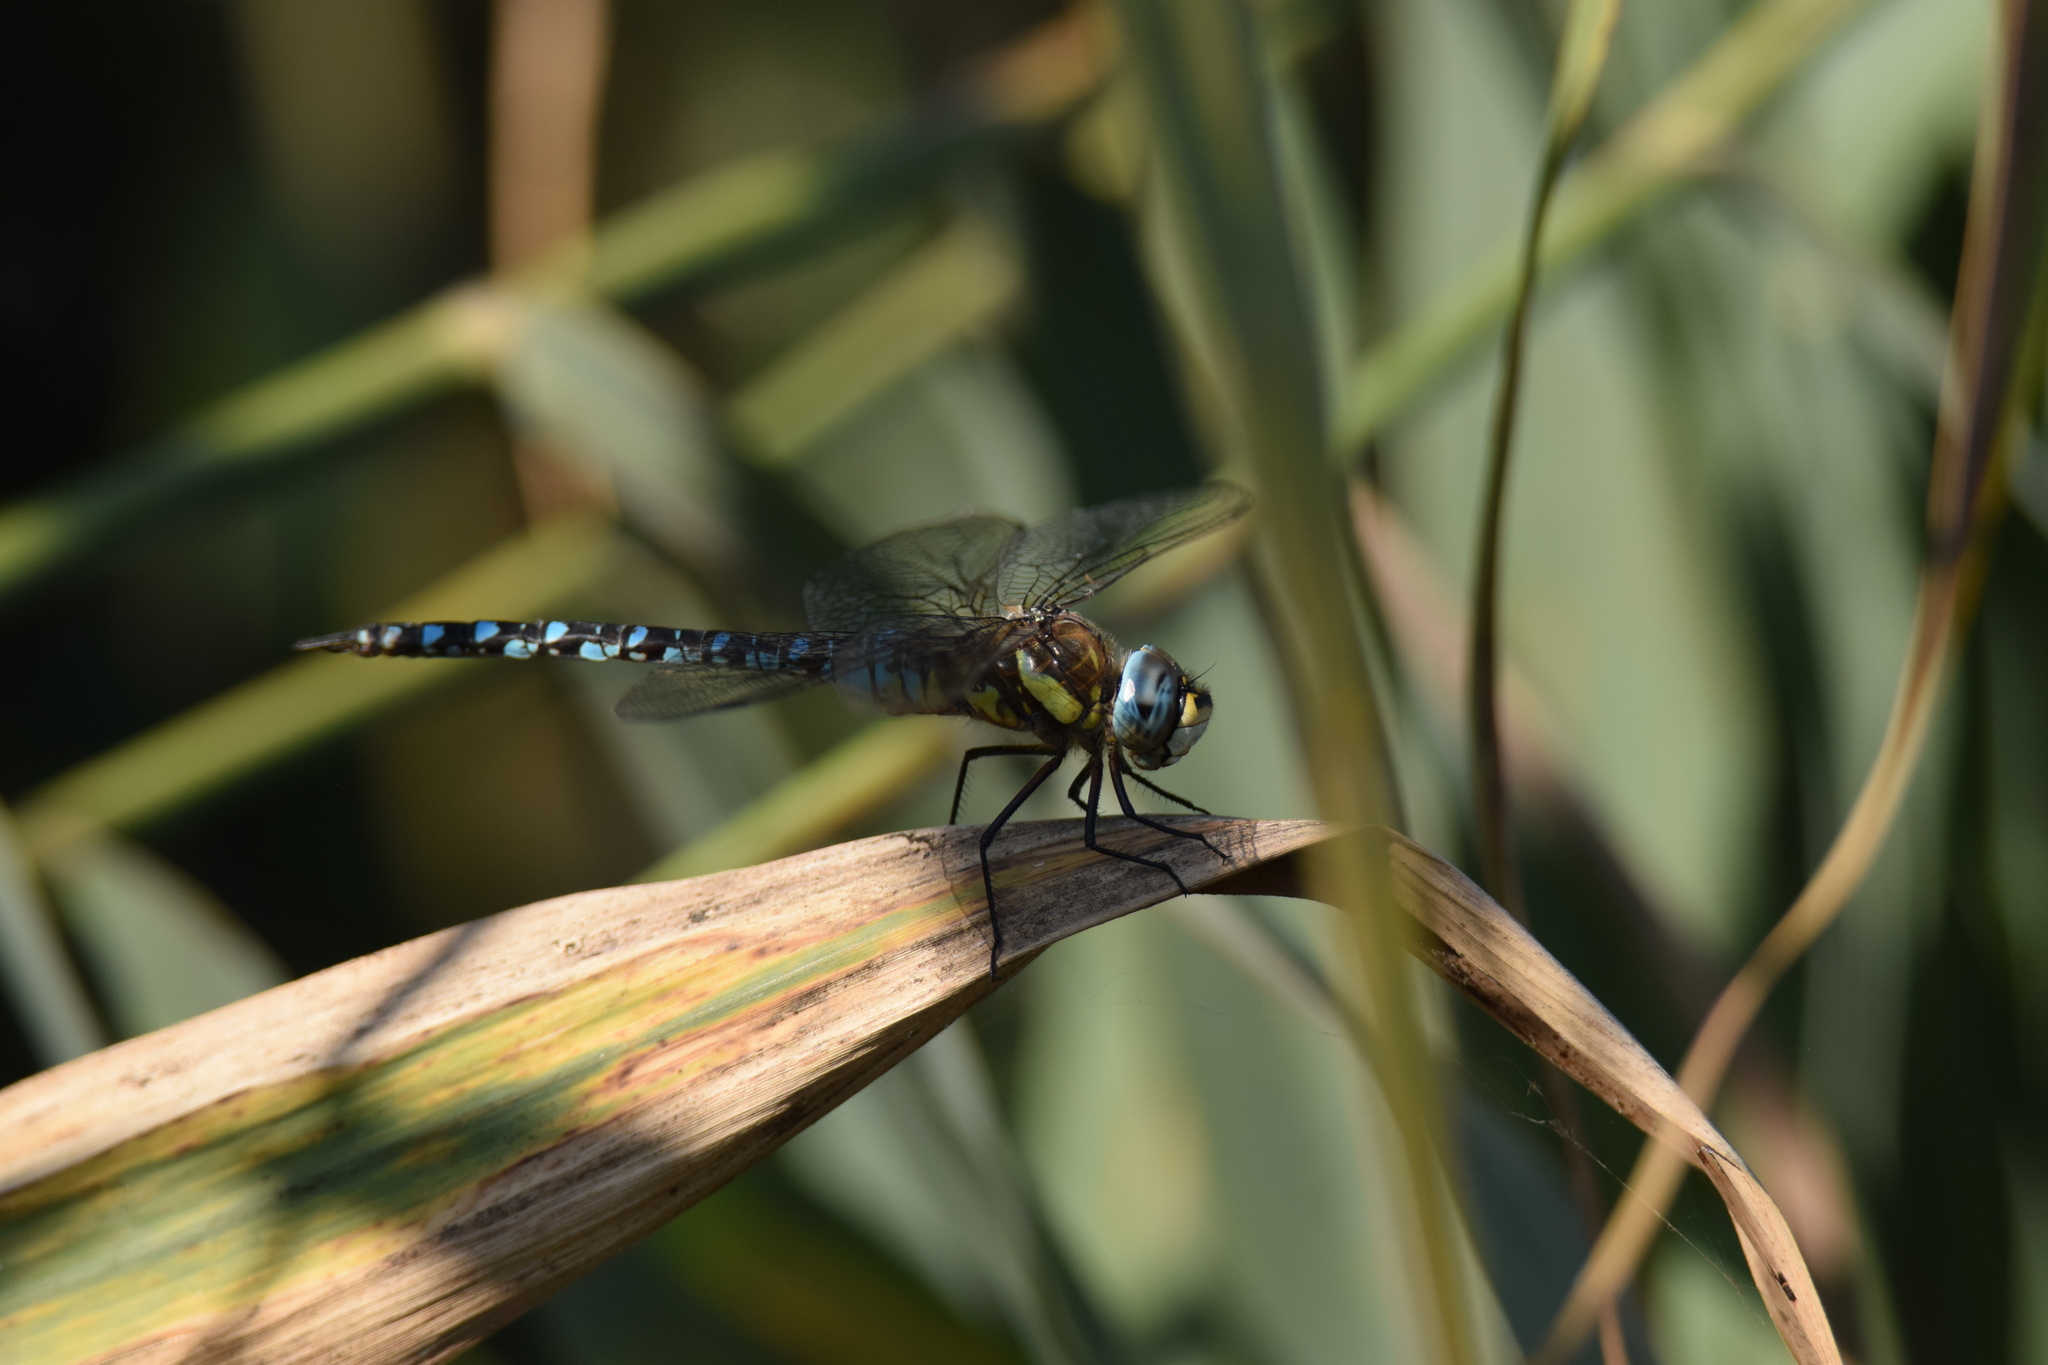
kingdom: Animalia
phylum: Arthropoda
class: Insecta
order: Odonata
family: Aeshnidae
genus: Aeshna
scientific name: Aeshna mixta
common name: Migrant hawker
